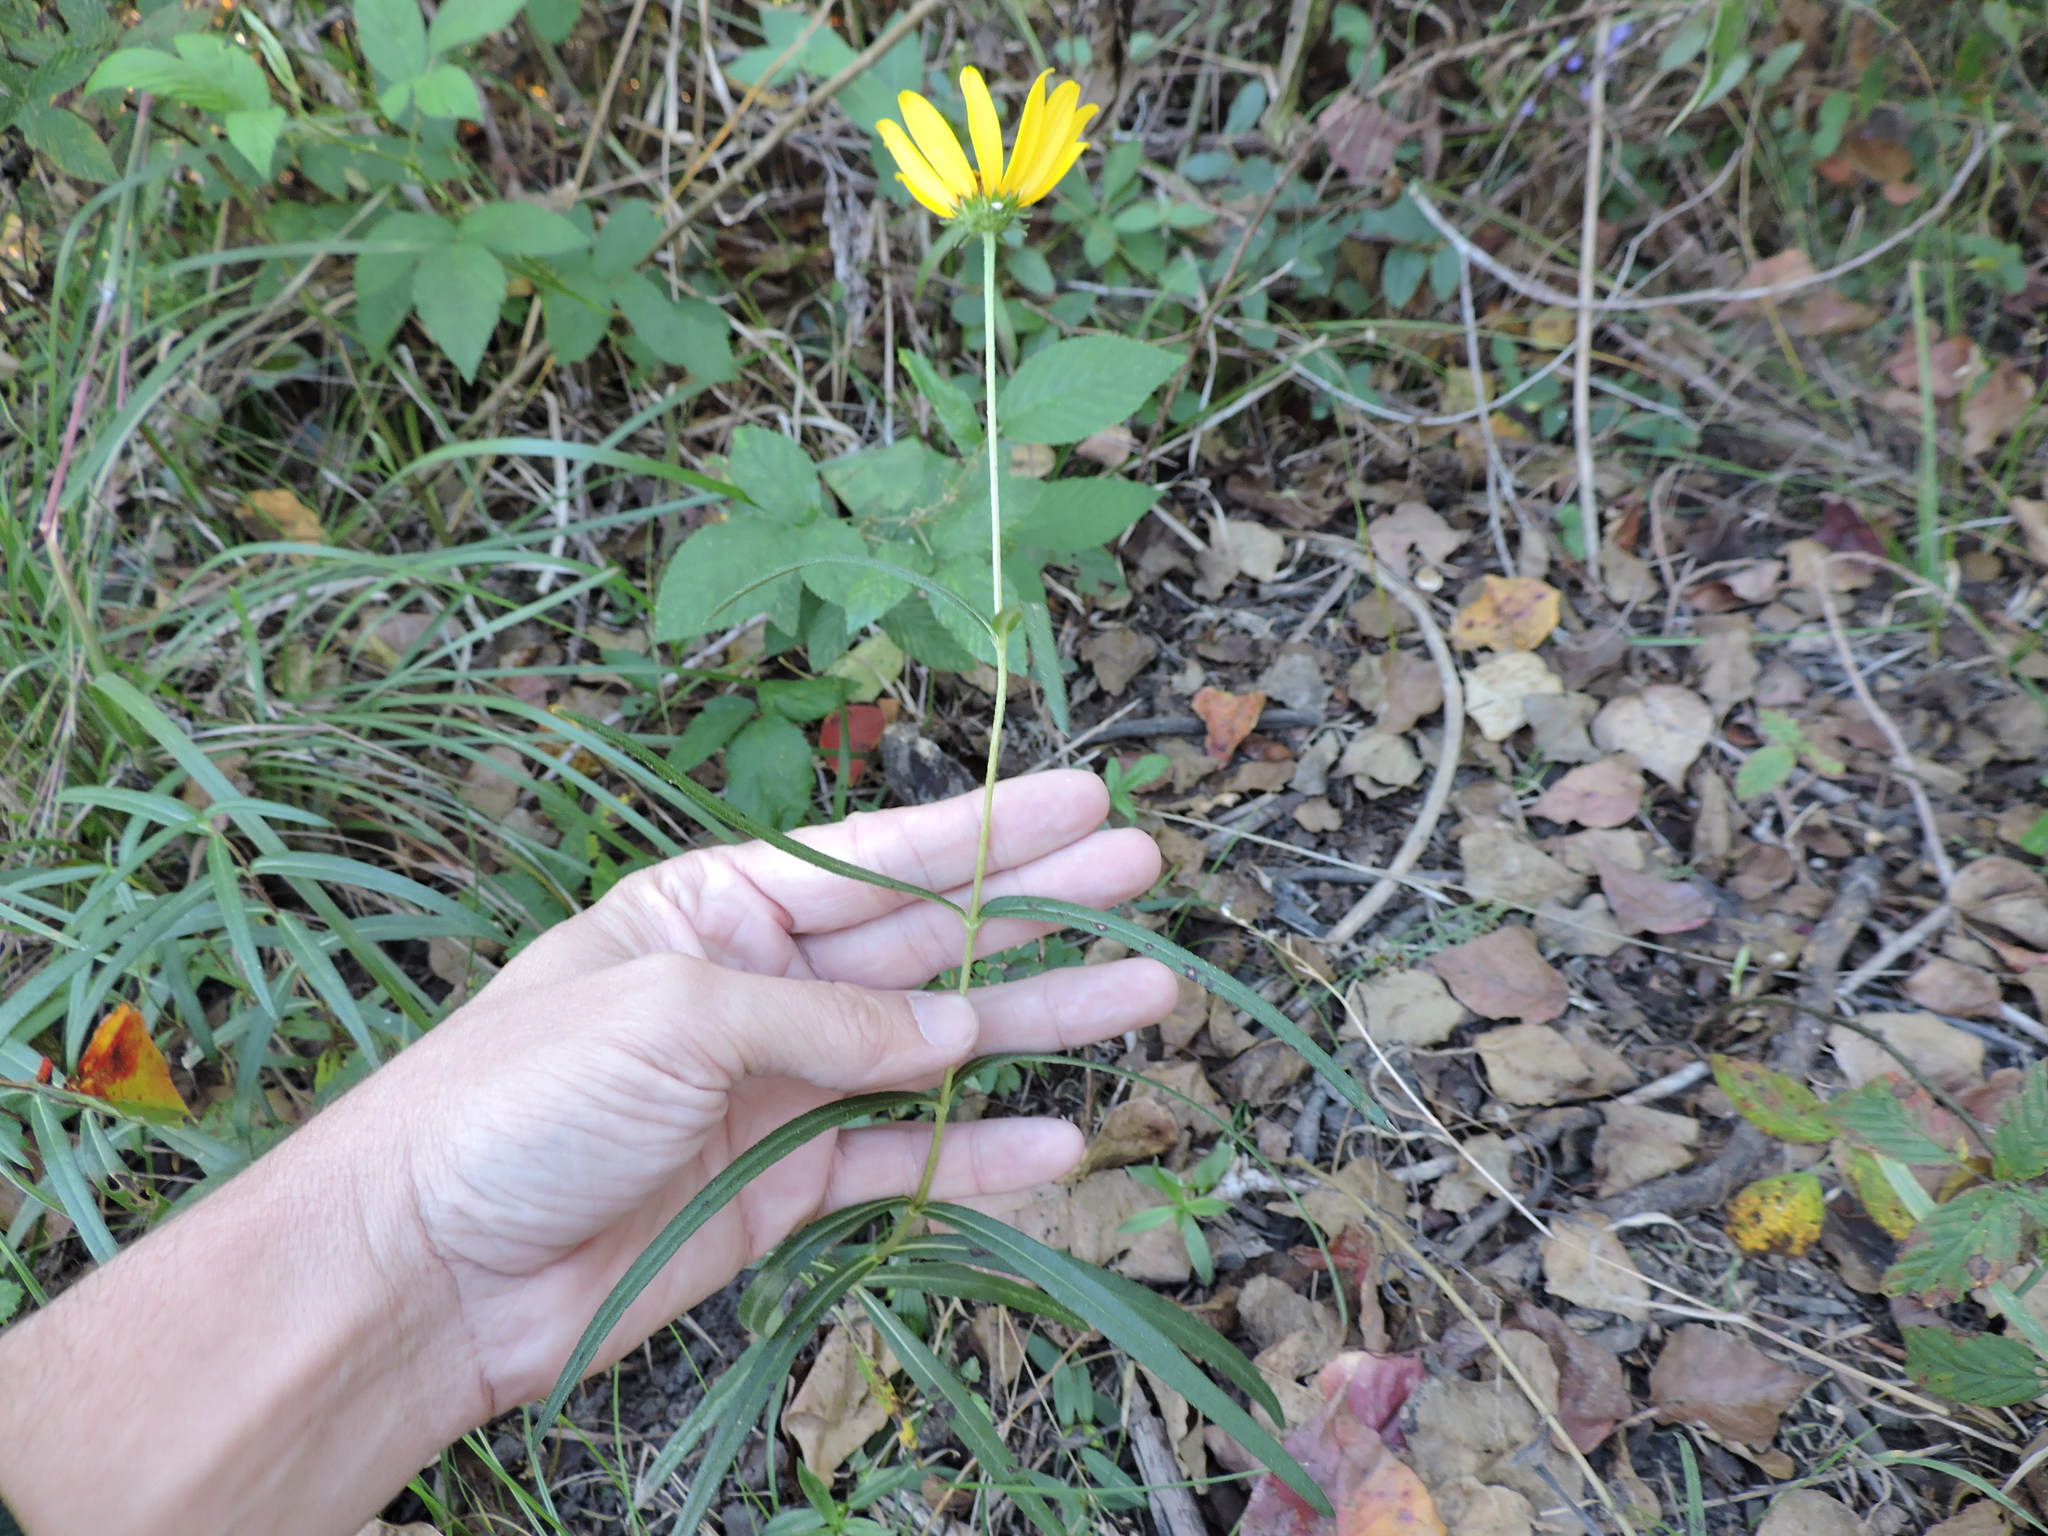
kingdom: Plantae
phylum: Tracheophyta
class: Magnoliopsida
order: Asterales
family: Asteraceae
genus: Helianthus
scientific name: Helianthus angustifolius
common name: Swamp sunflower
